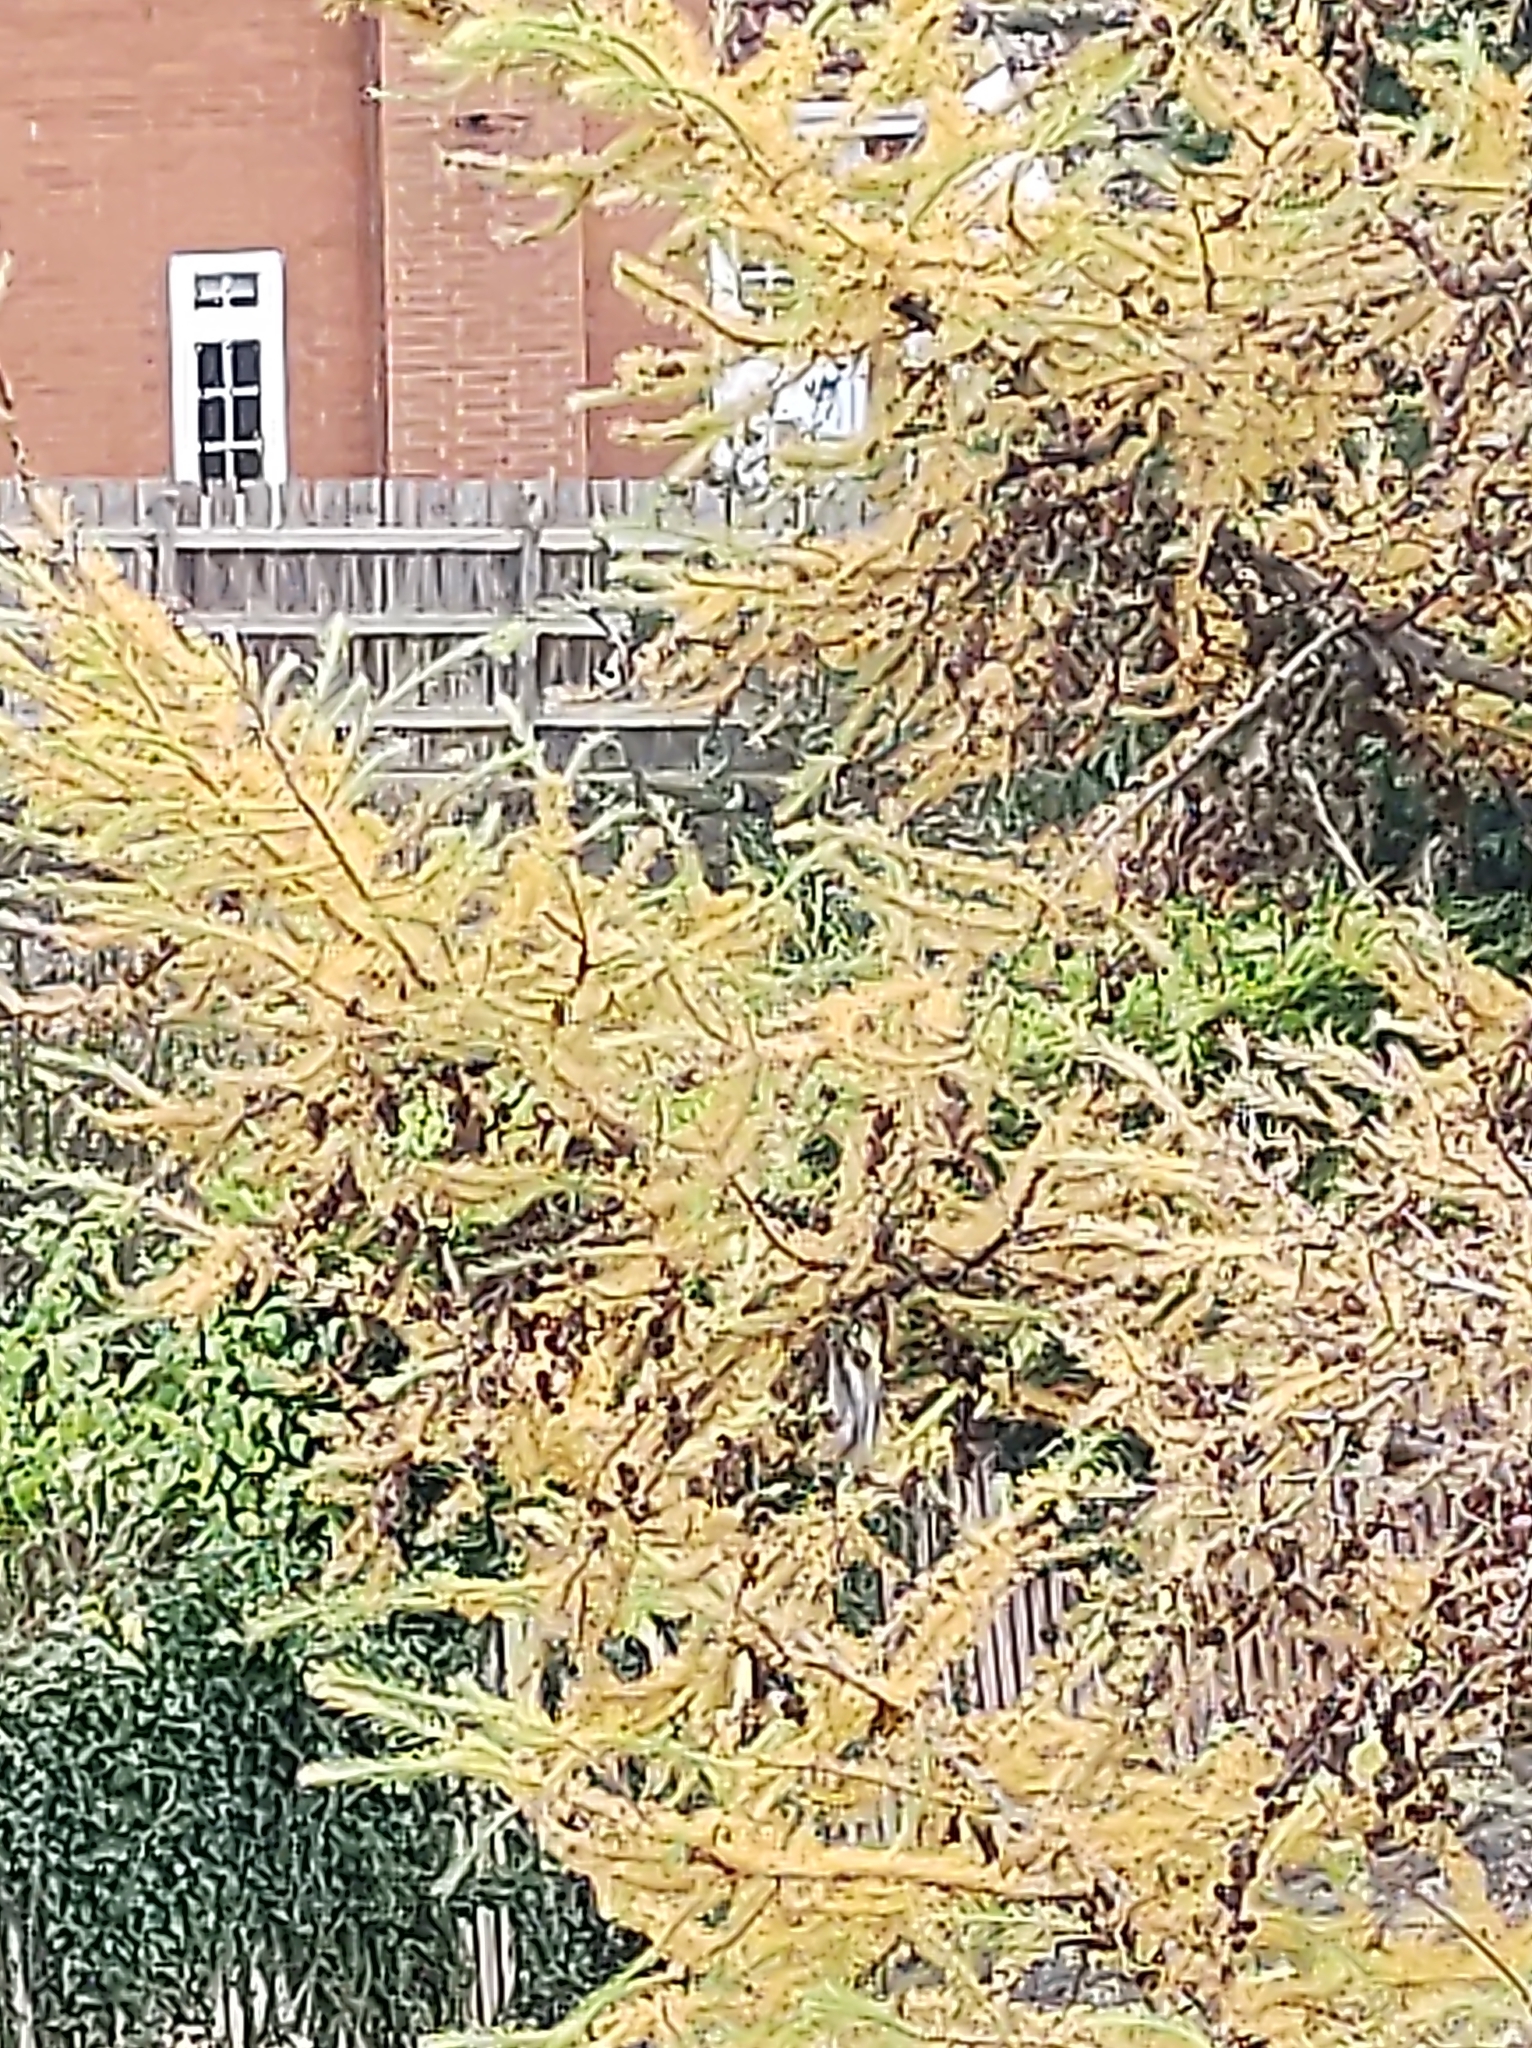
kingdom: Animalia
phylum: Chordata
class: Aves
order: Passeriformes
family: Aegithalidae
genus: Aegithalos
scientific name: Aegithalos caudatus
